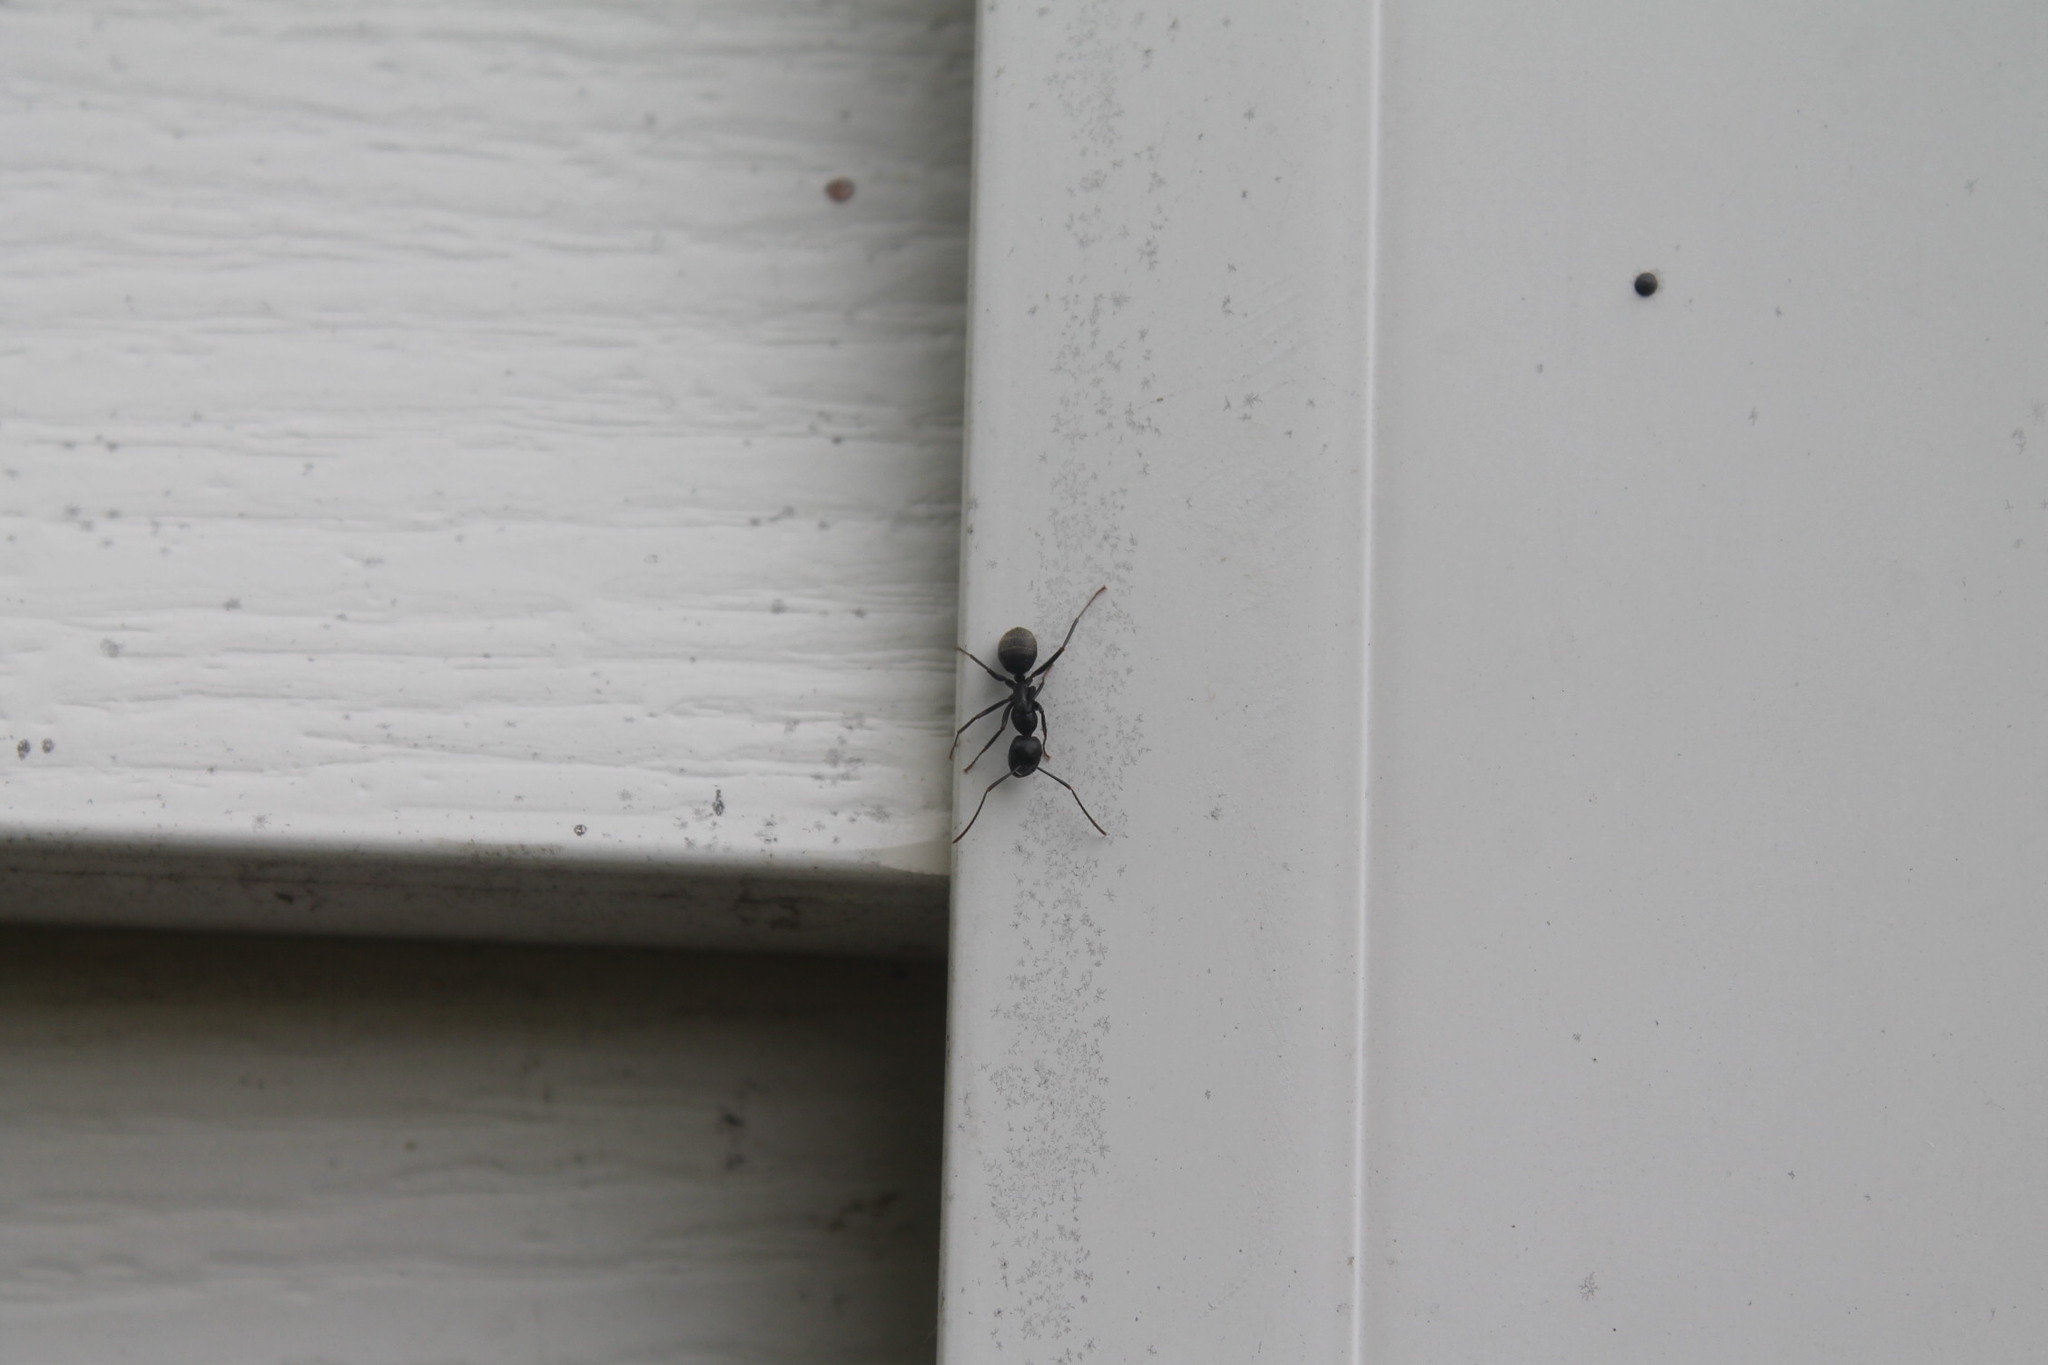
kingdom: Animalia
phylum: Arthropoda
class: Insecta
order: Hymenoptera
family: Formicidae
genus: Camponotus
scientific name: Camponotus pennsylvanicus
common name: Black carpenter ant
